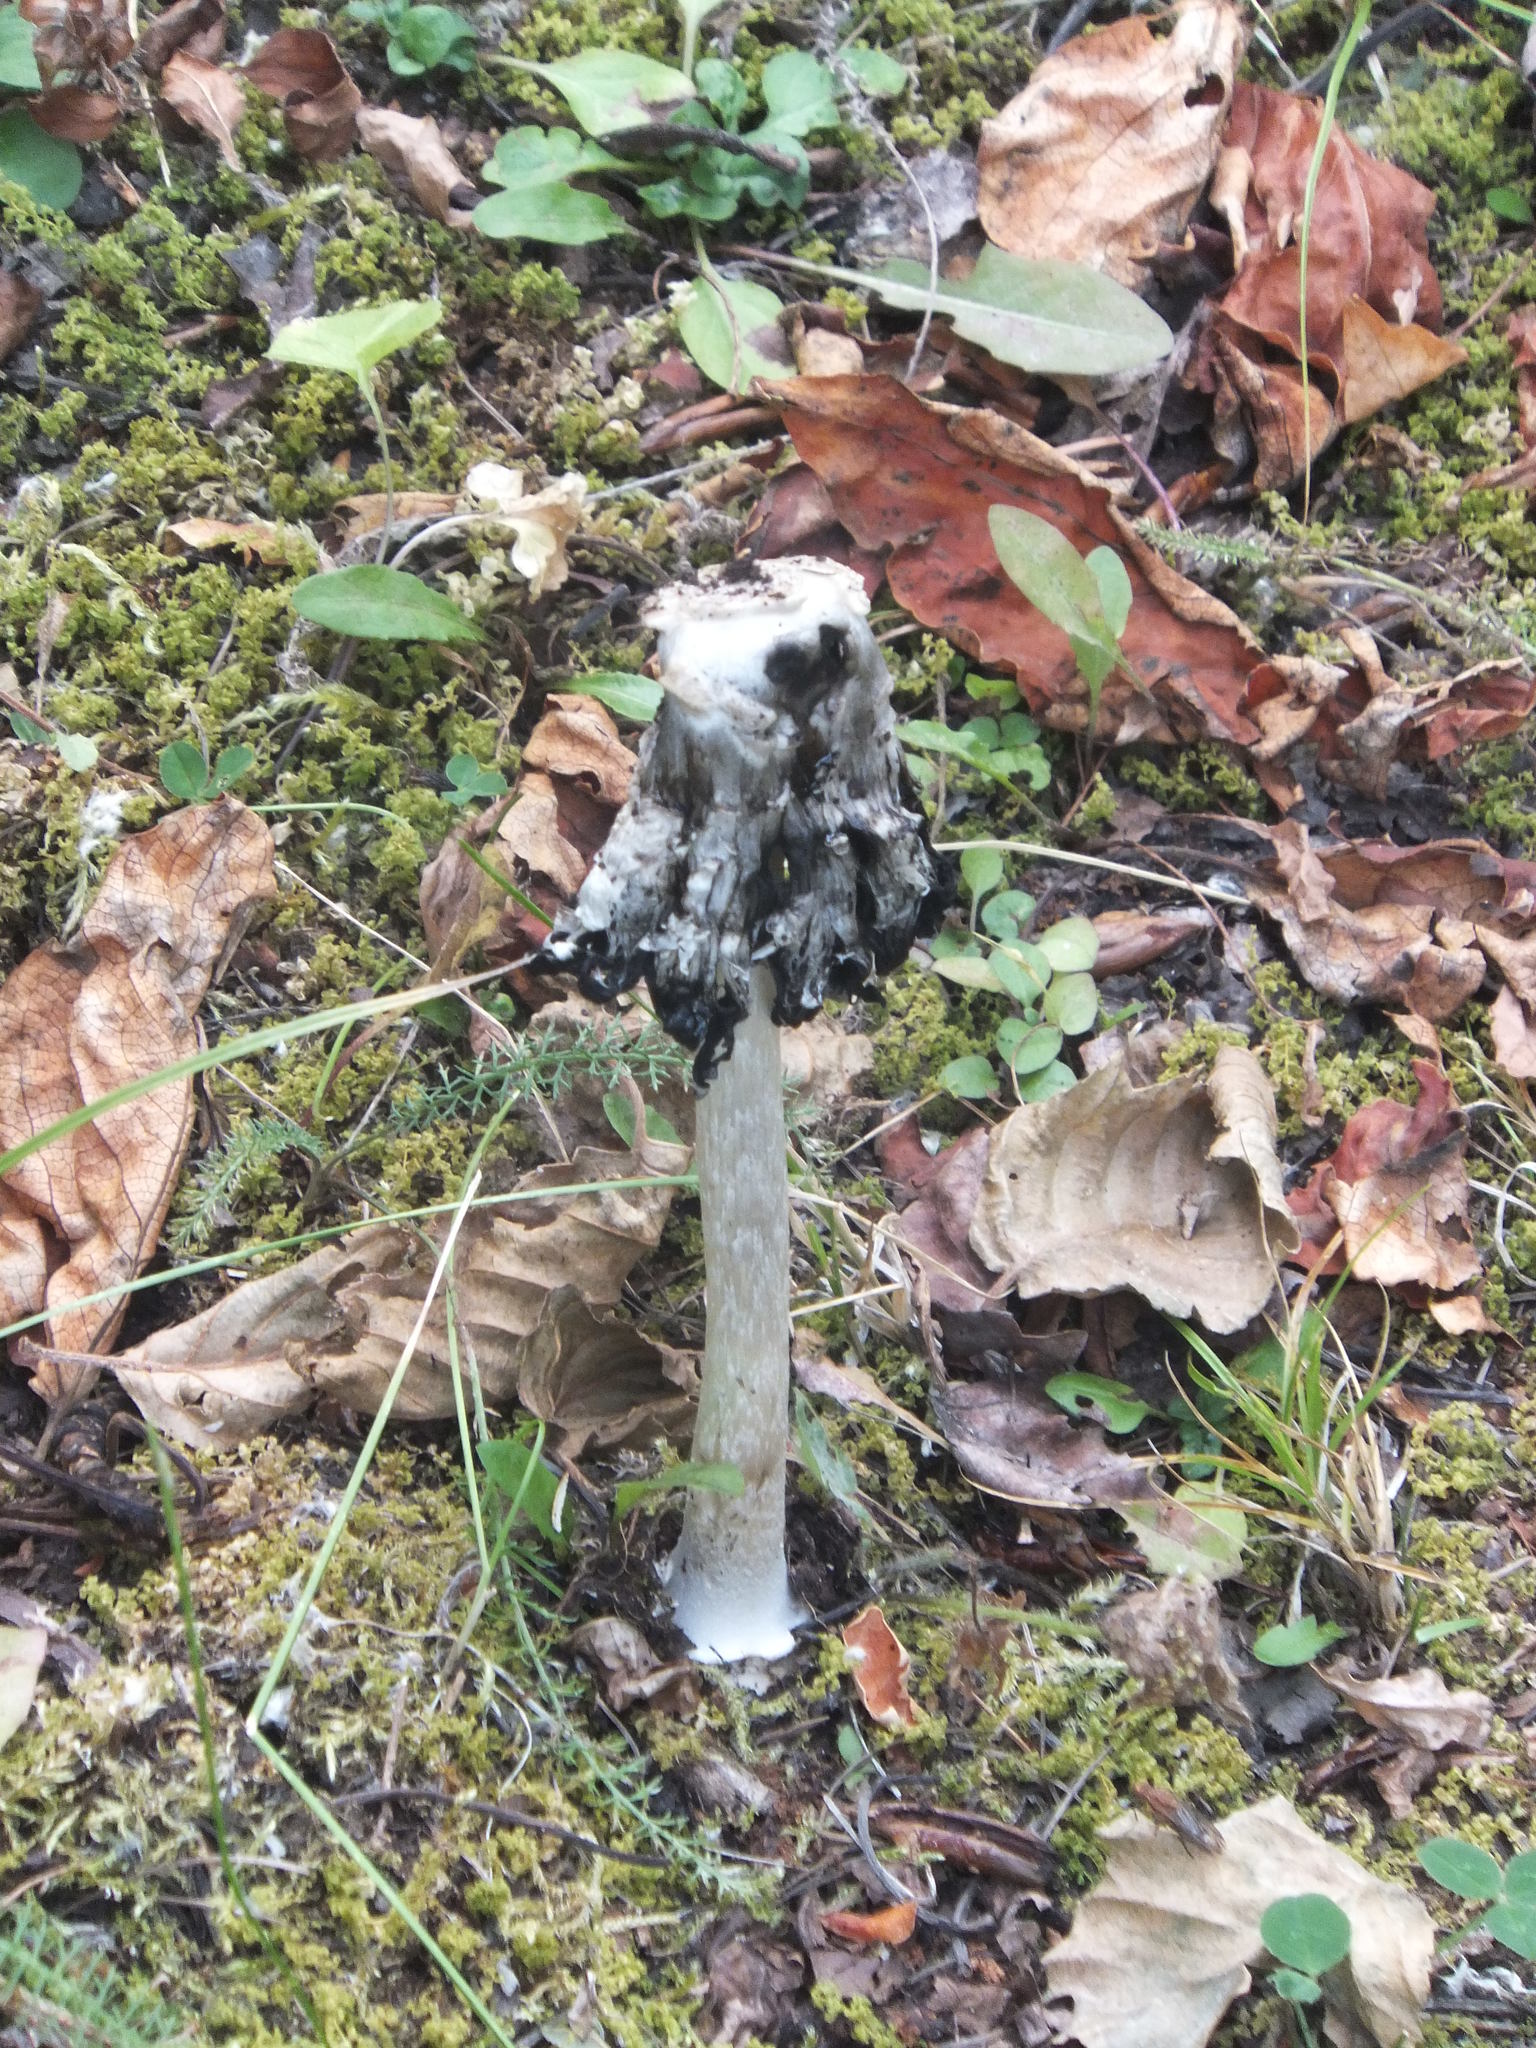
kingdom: Fungi
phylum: Basidiomycota
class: Agaricomycetes
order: Agaricales
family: Agaricaceae
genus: Coprinus
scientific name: Coprinus comatus
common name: Lawyer's wig
